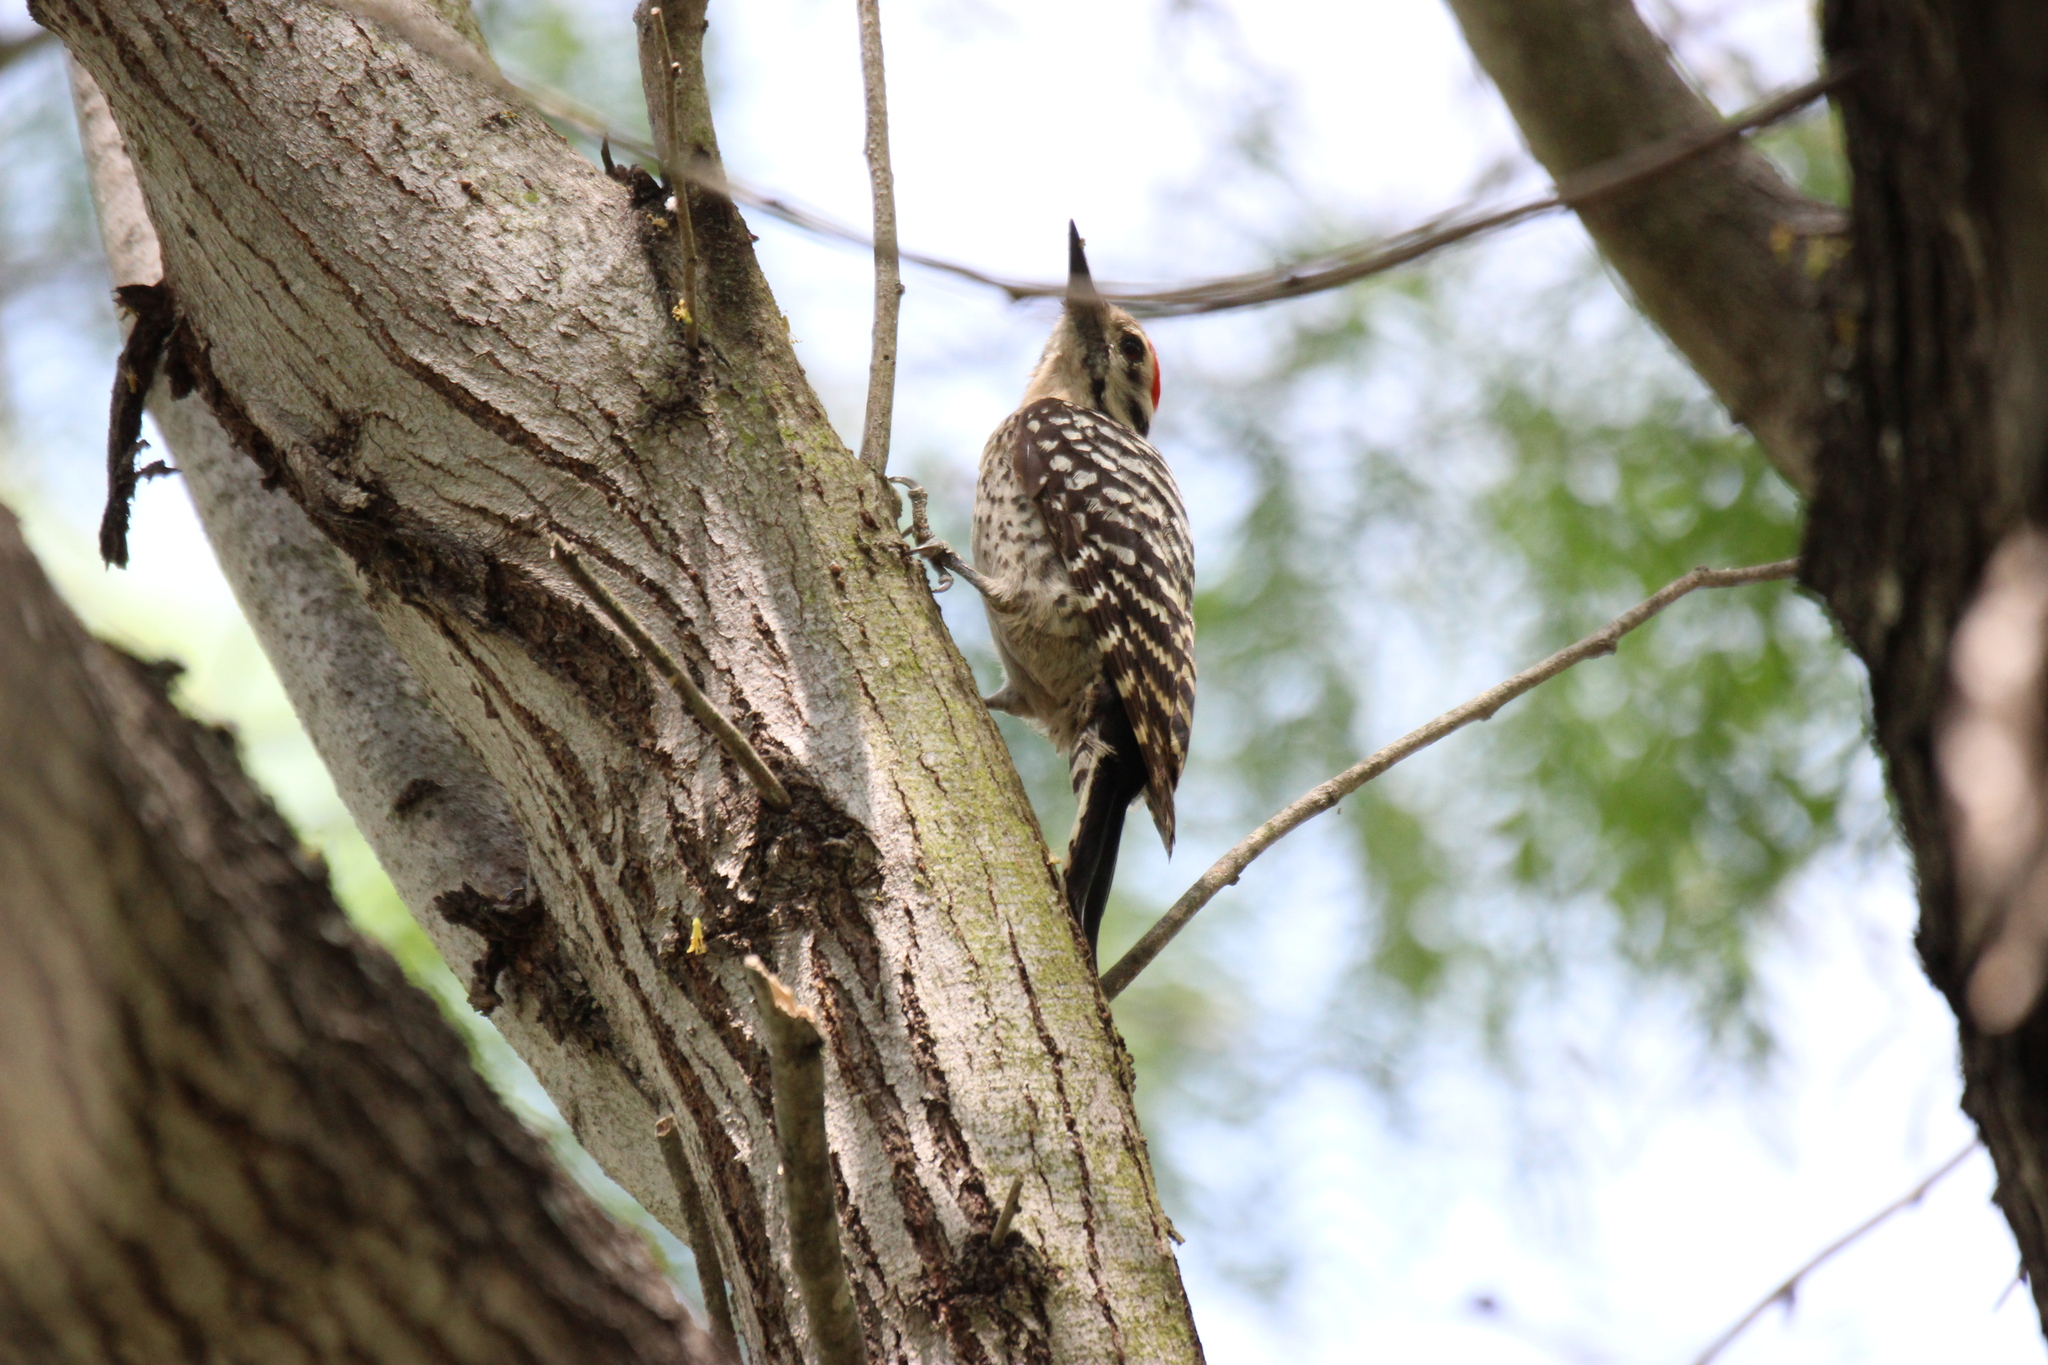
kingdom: Animalia
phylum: Chordata
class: Aves
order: Piciformes
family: Picidae
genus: Dryobates
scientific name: Dryobates scalaris
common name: Ladder-backed woodpecker
